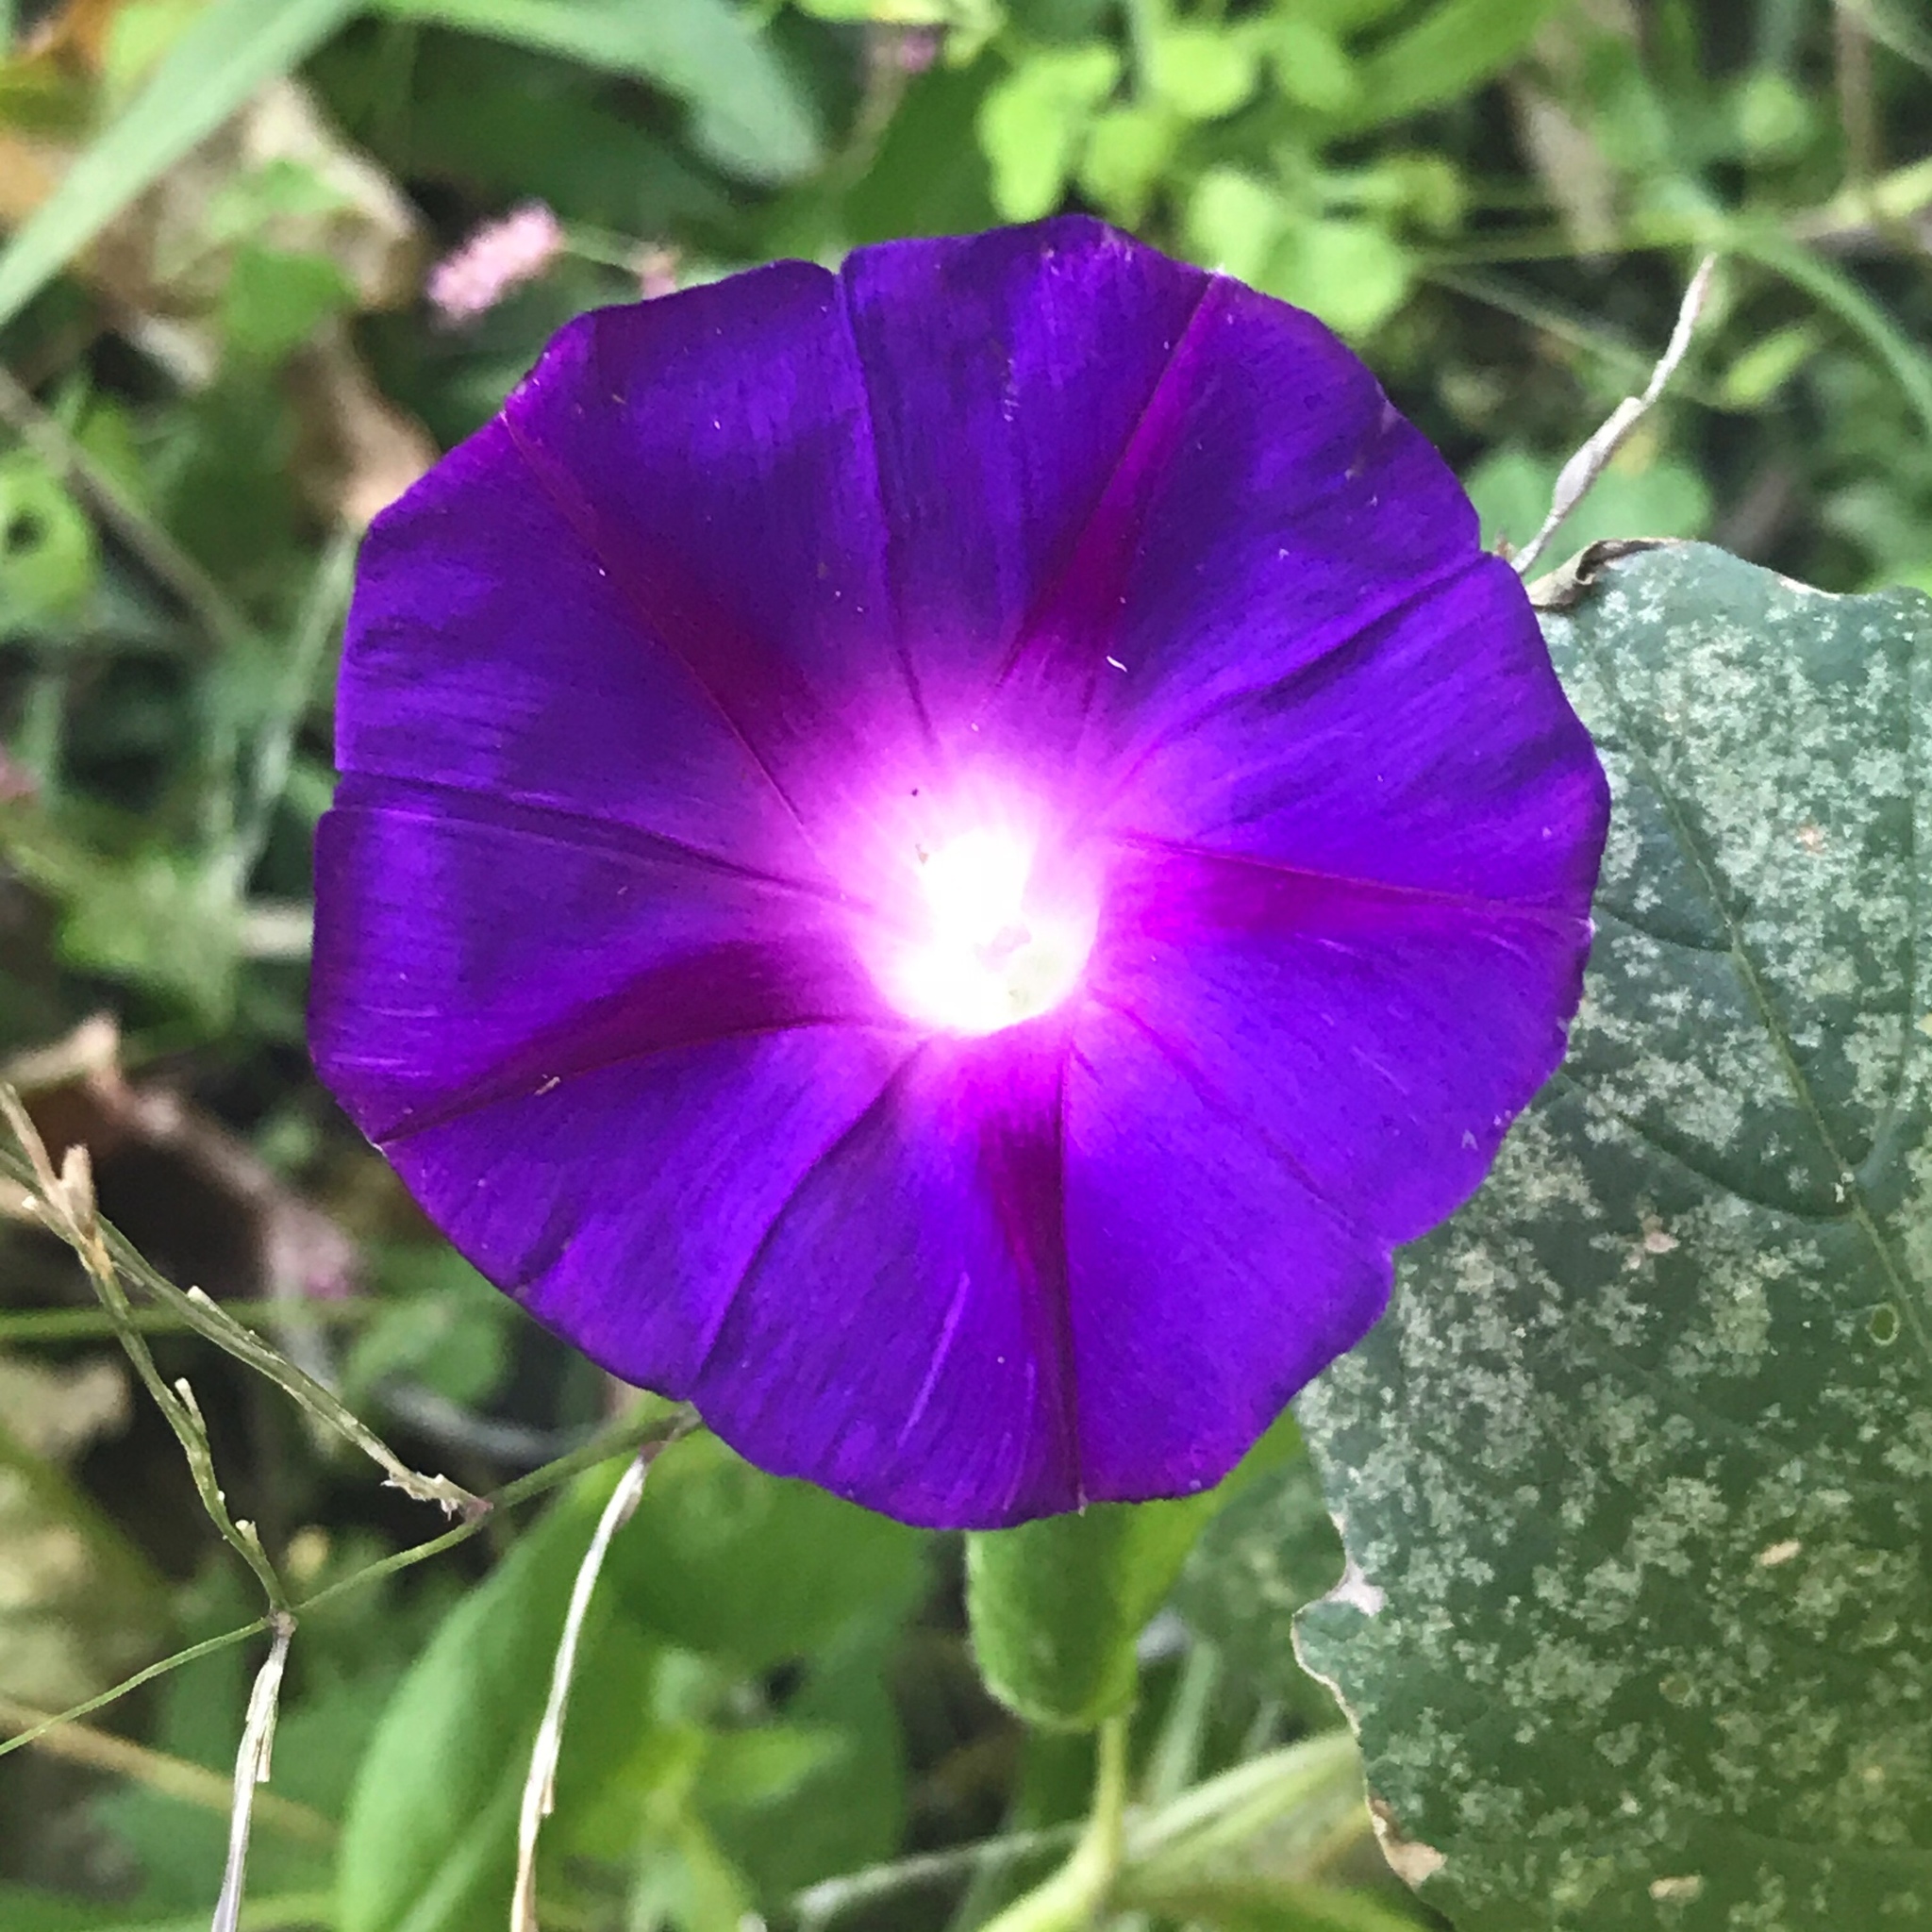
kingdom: Plantae
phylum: Tracheophyta
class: Magnoliopsida
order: Solanales
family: Convolvulaceae
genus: Ipomoea
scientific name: Ipomoea purpurea
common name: Common morning-glory
